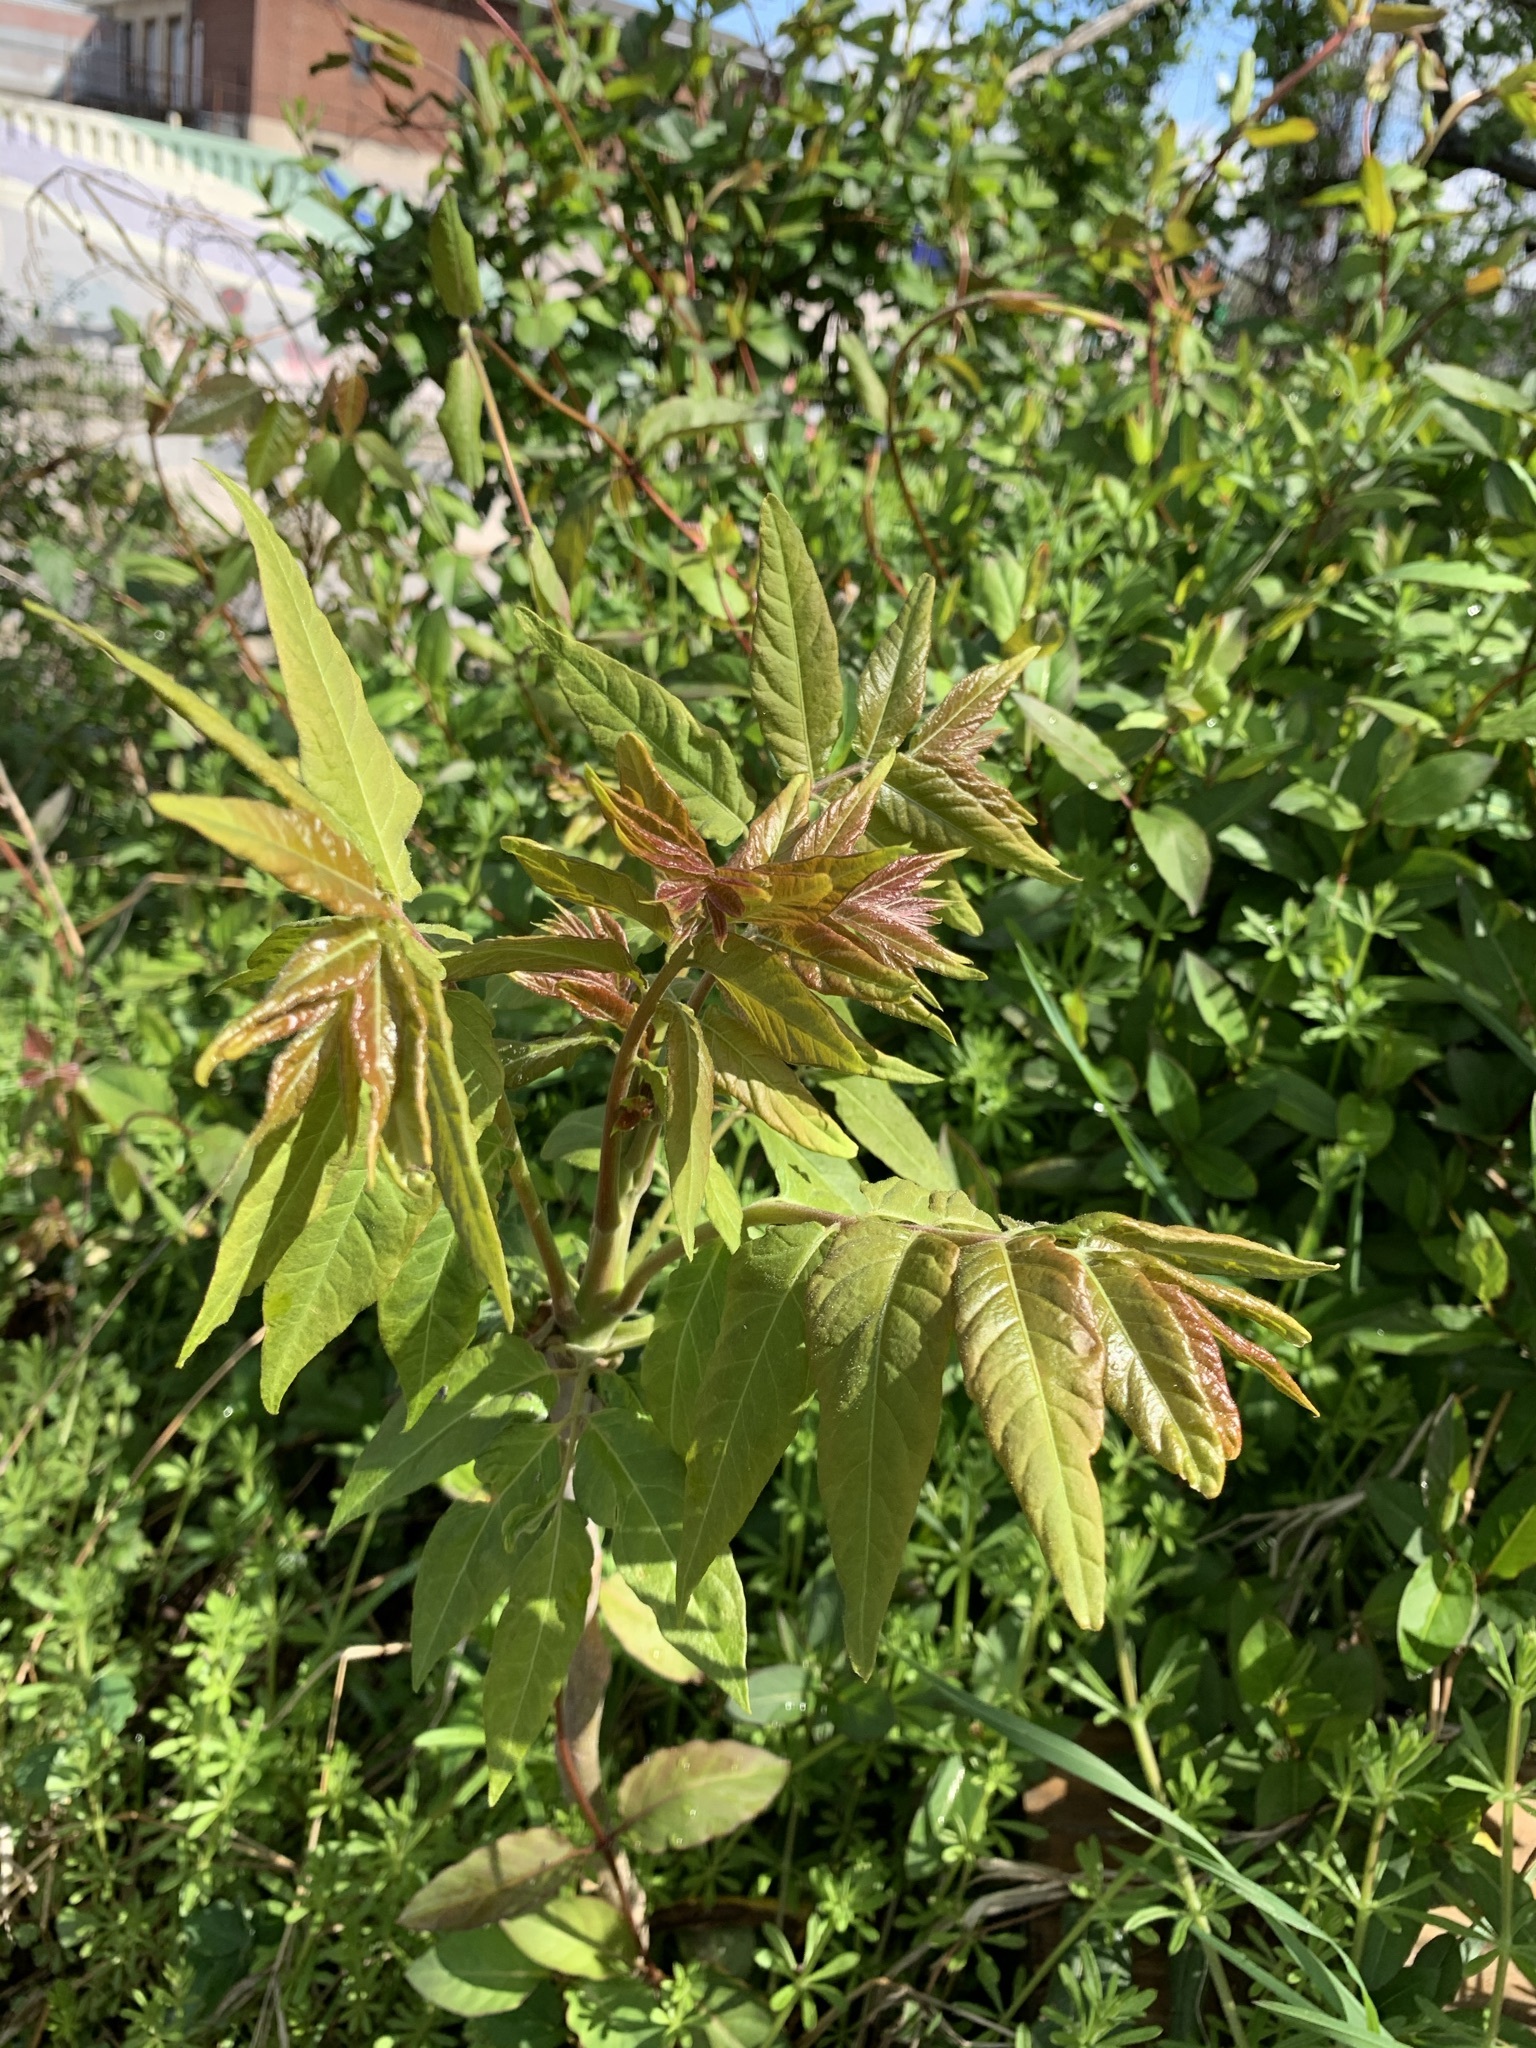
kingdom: Plantae
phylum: Tracheophyta
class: Magnoliopsida
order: Sapindales
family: Simaroubaceae
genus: Ailanthus
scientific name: Ailanthus altissima
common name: Tree-of-heaven
